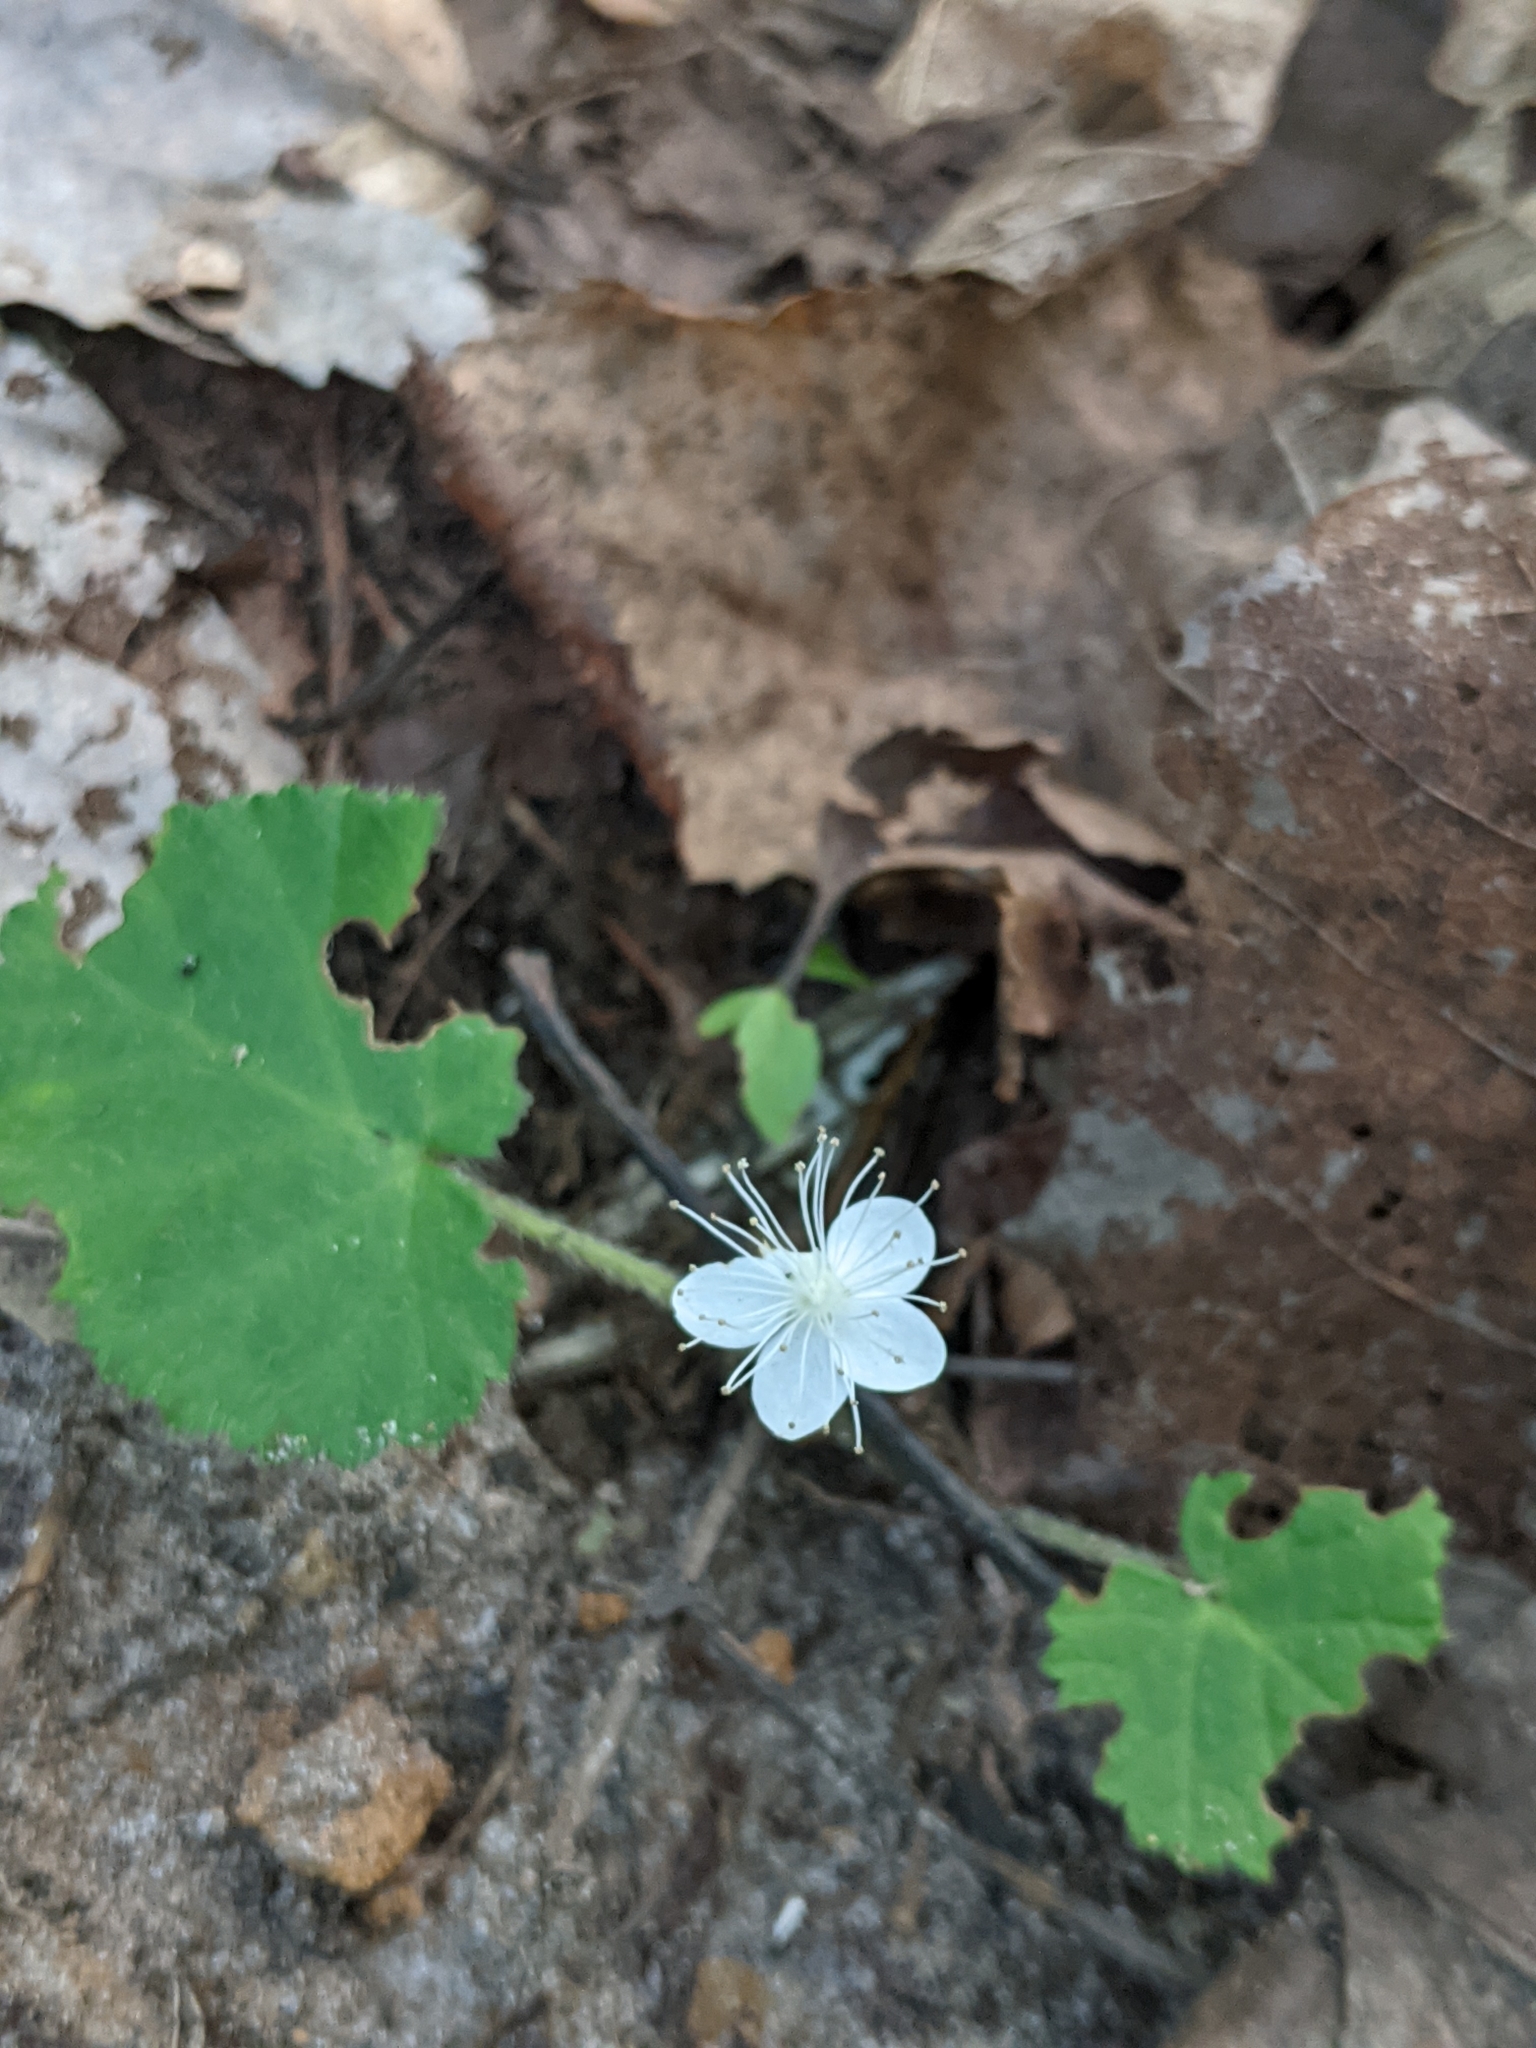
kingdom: Plantae
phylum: Tracheophyta
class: Magnoliopsida
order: Rosales
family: Rosaceae
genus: Dalibarda
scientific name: Dalibarda repens
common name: Dewdrop
